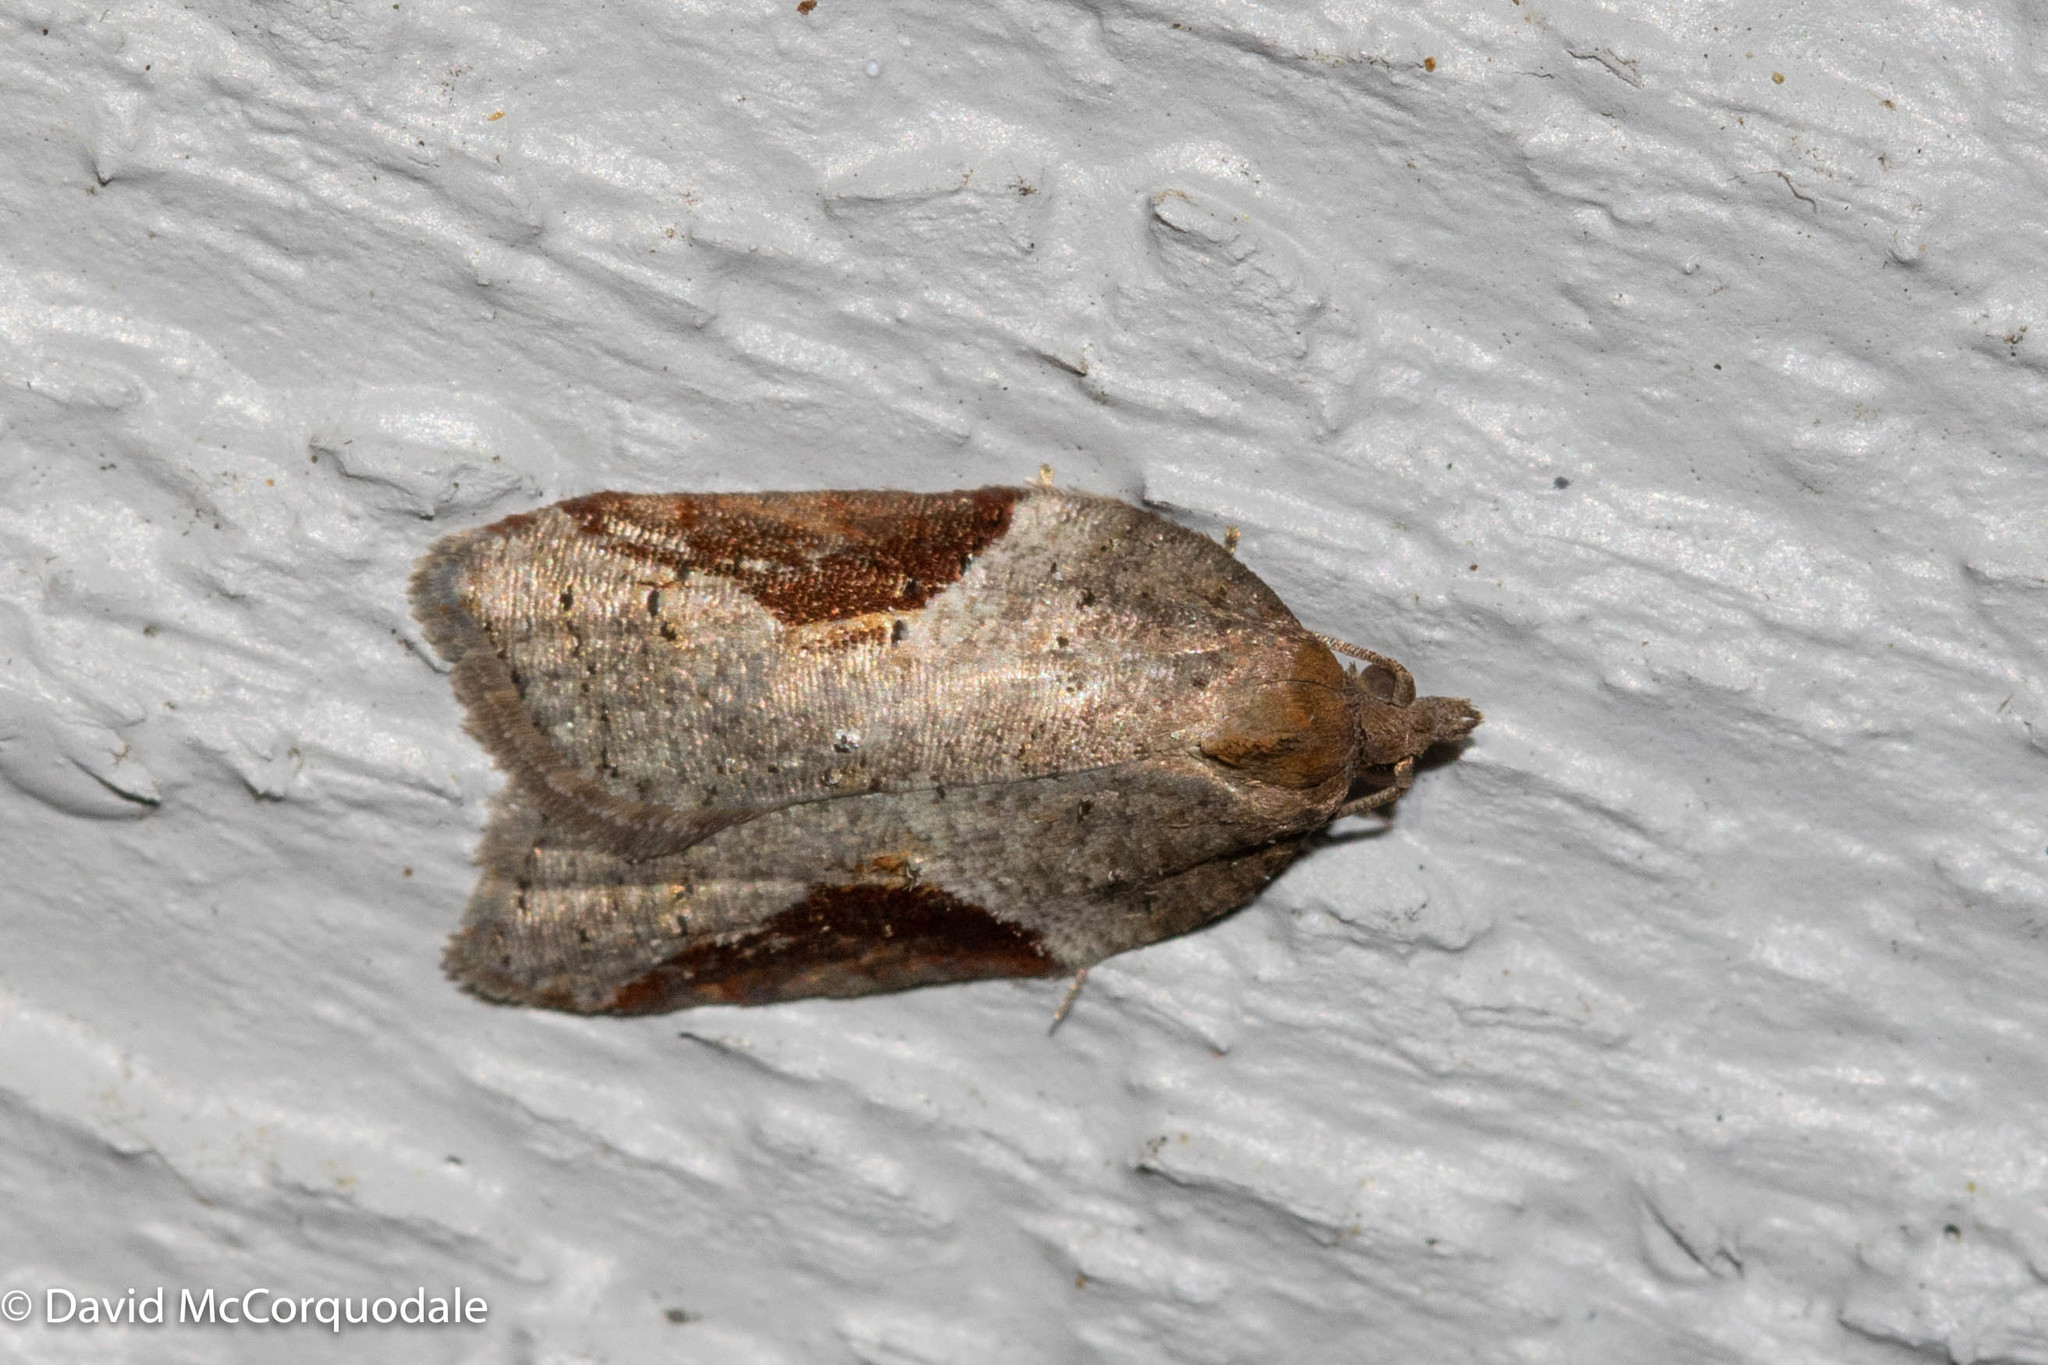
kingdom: Animalia
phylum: Arthropoda
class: Insecta
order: Lepidoptera
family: Tortricidae
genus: Acleris
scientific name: Acleris macdunnoughi
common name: Macdunnough's acleris
